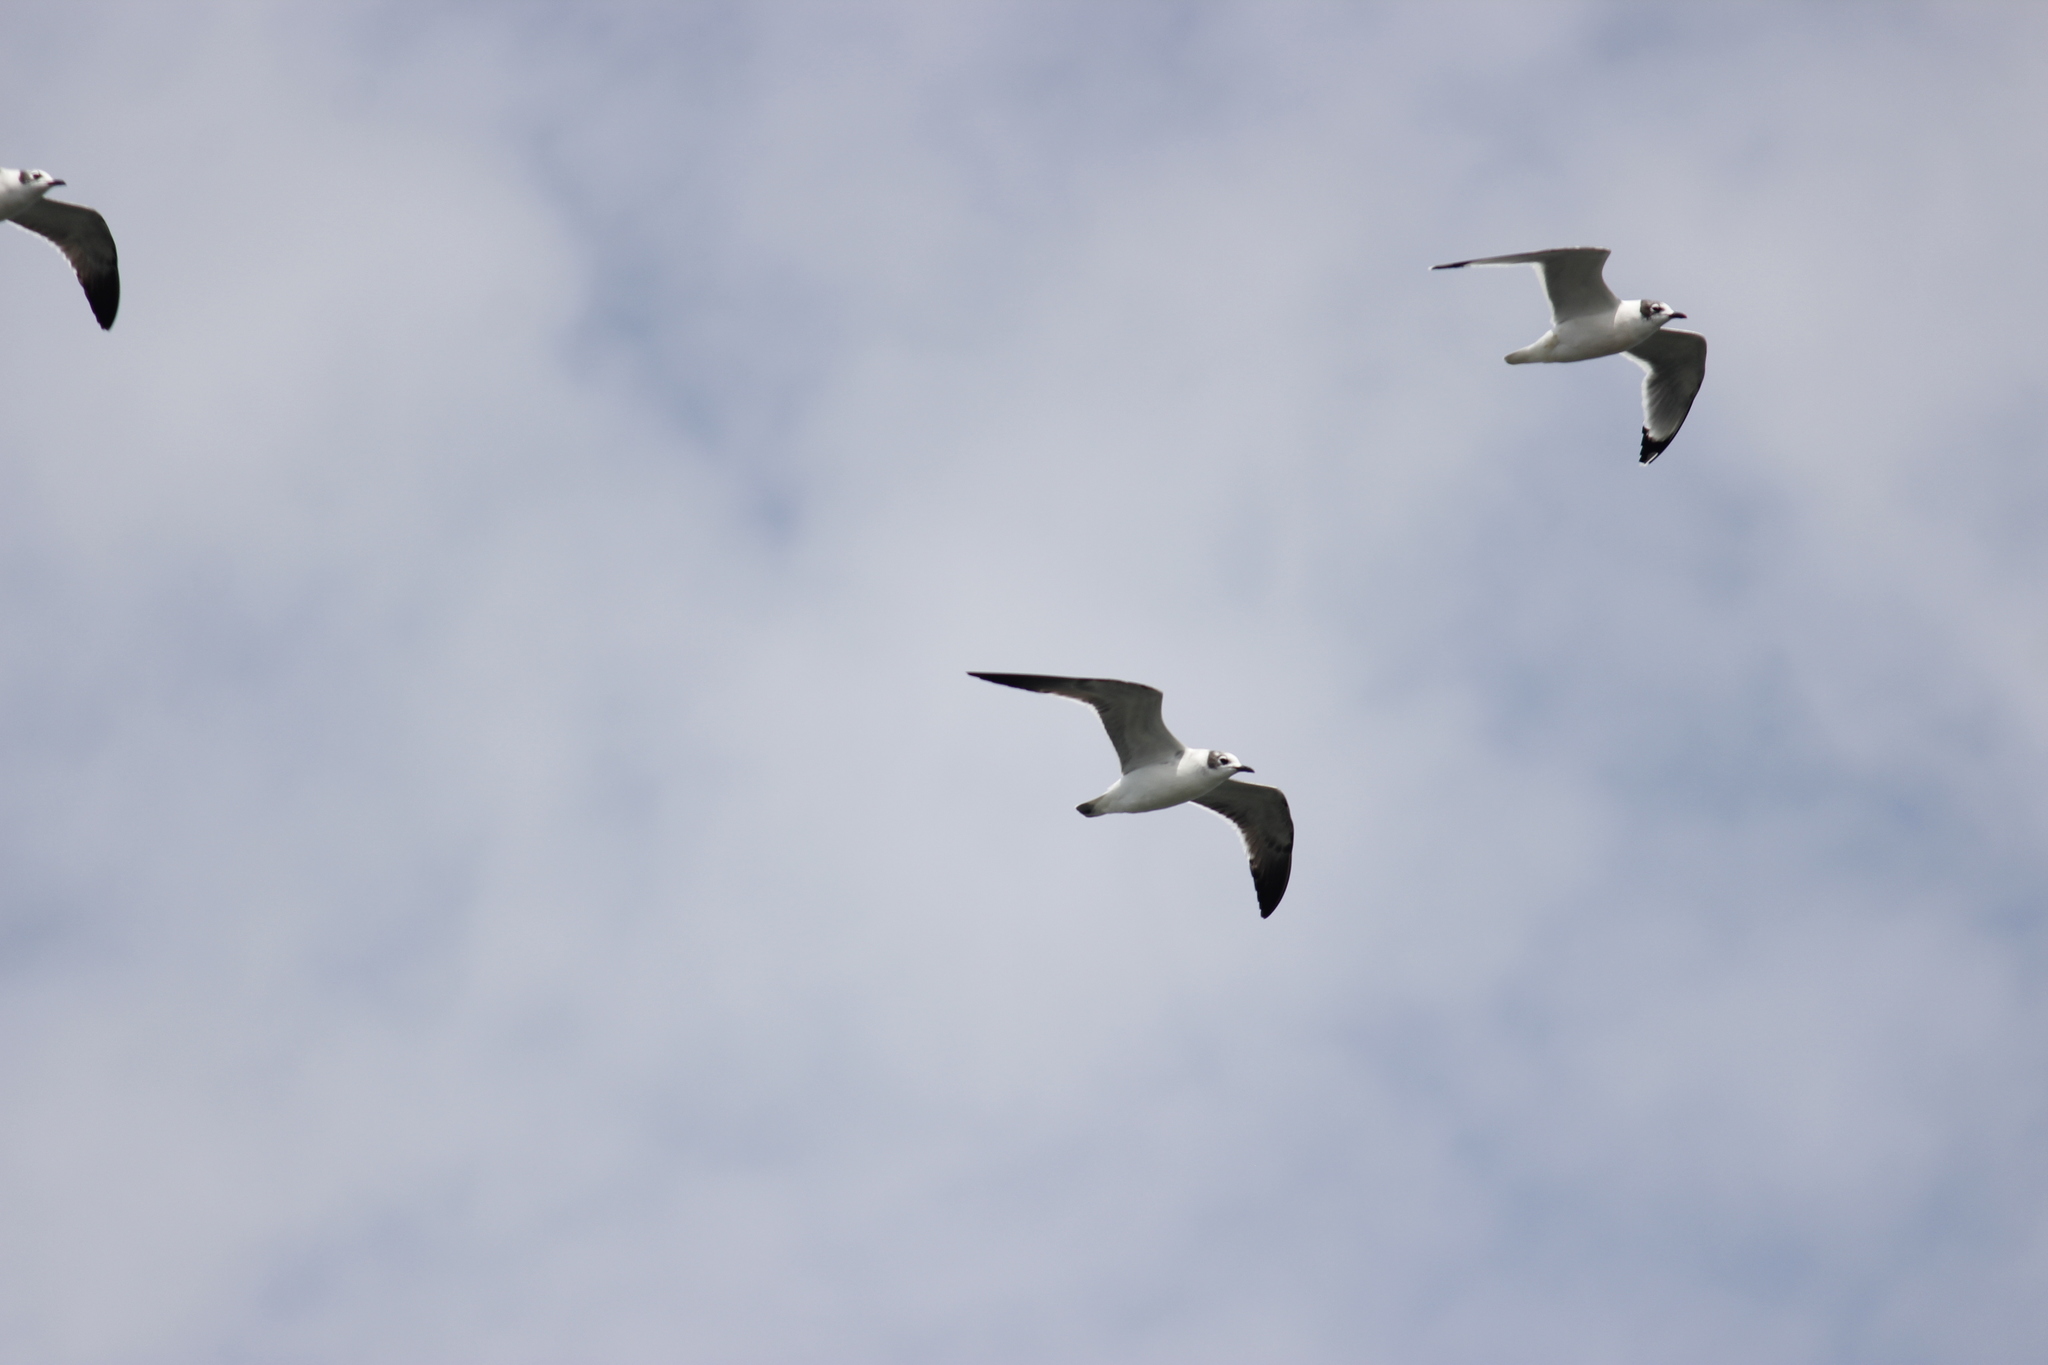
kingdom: Animalia
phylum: Chordata
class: Aves
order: Charadriiformes
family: Laridae
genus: Leucophaeus
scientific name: Leucophaeus pipixcan
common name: Franklin's gull
